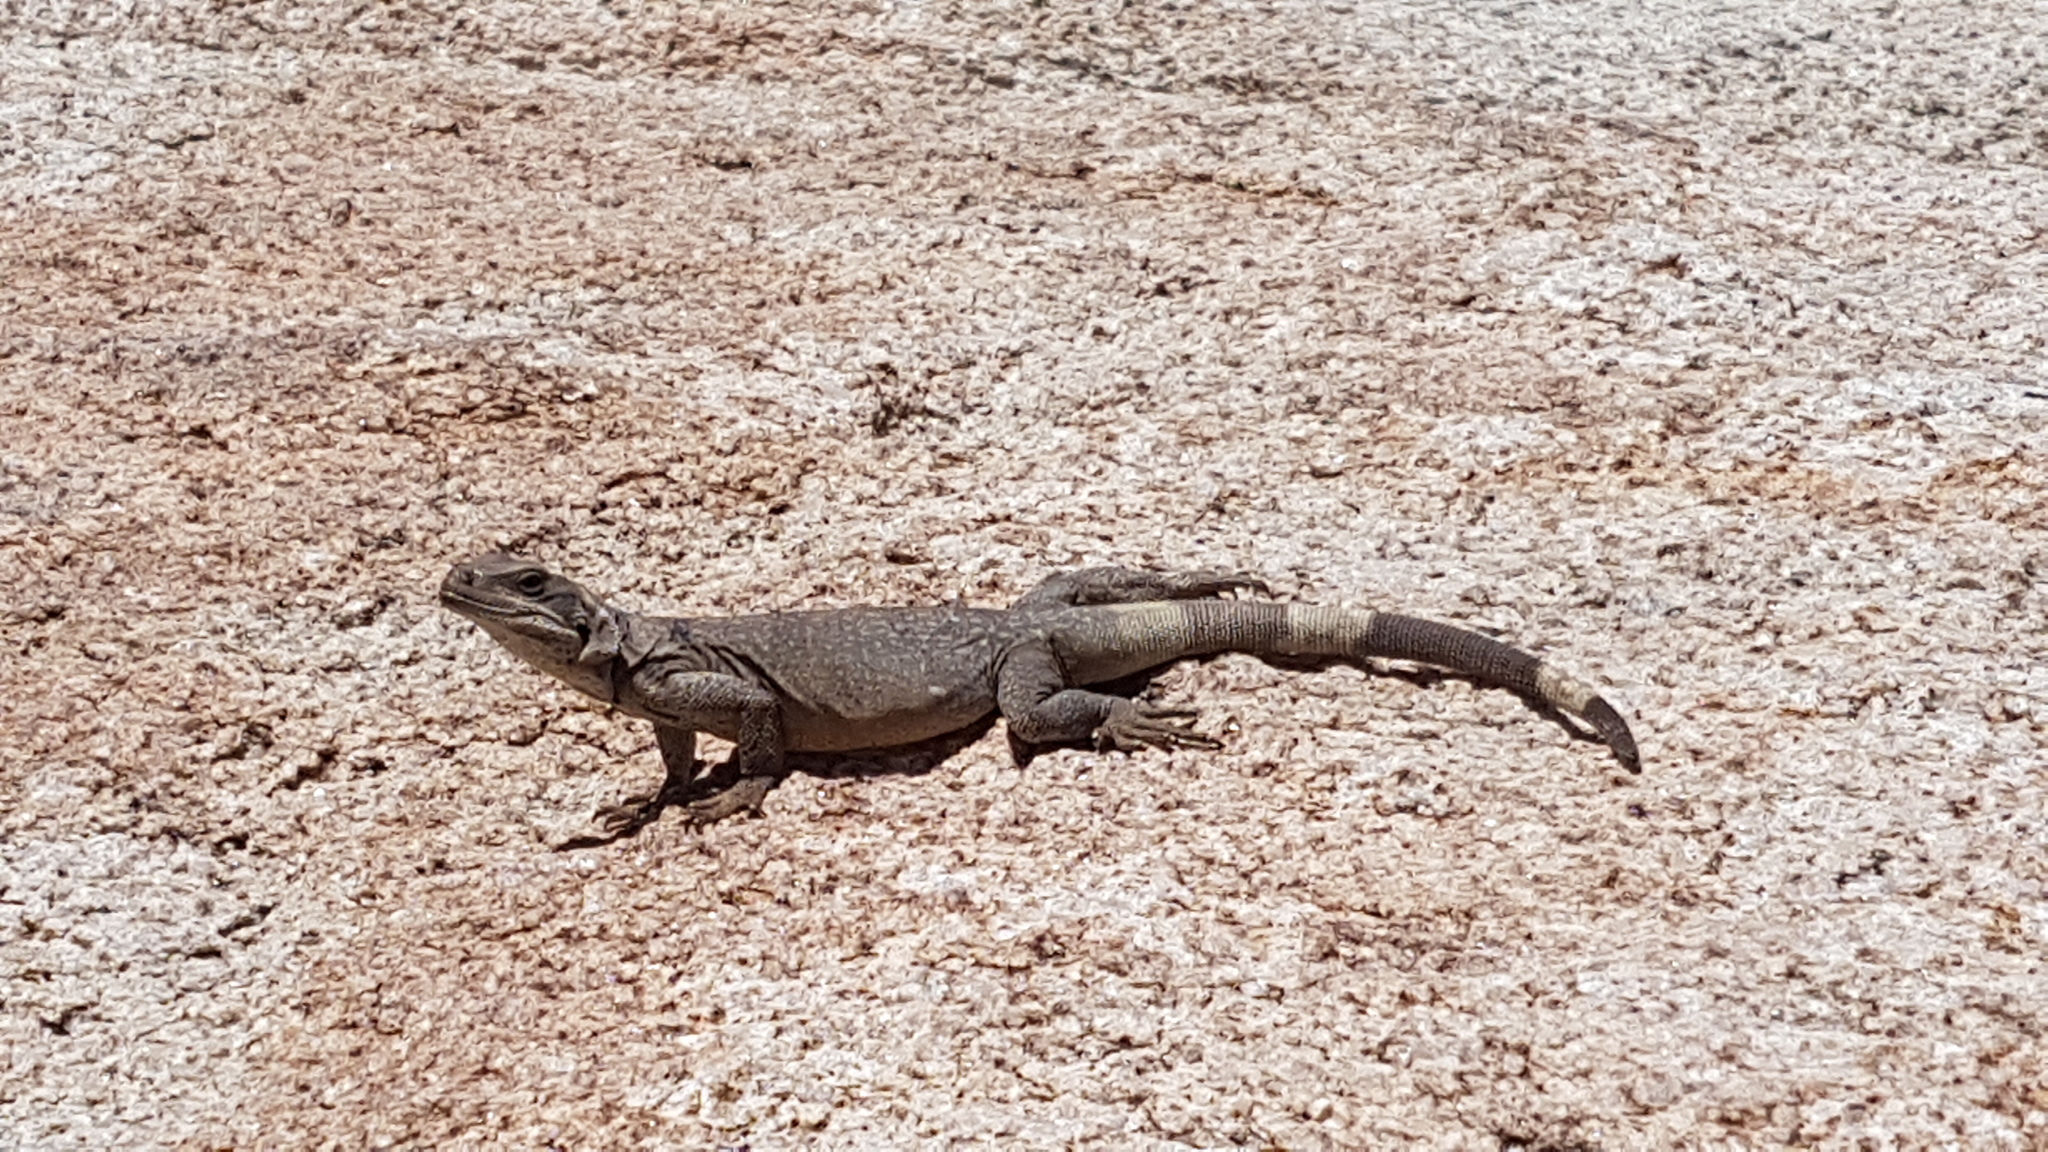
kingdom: Animalia
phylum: Chordata
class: Squamata
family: Iguanidae
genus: Sauromalus
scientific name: Sauromalus ater
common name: Northern chuckwalla
